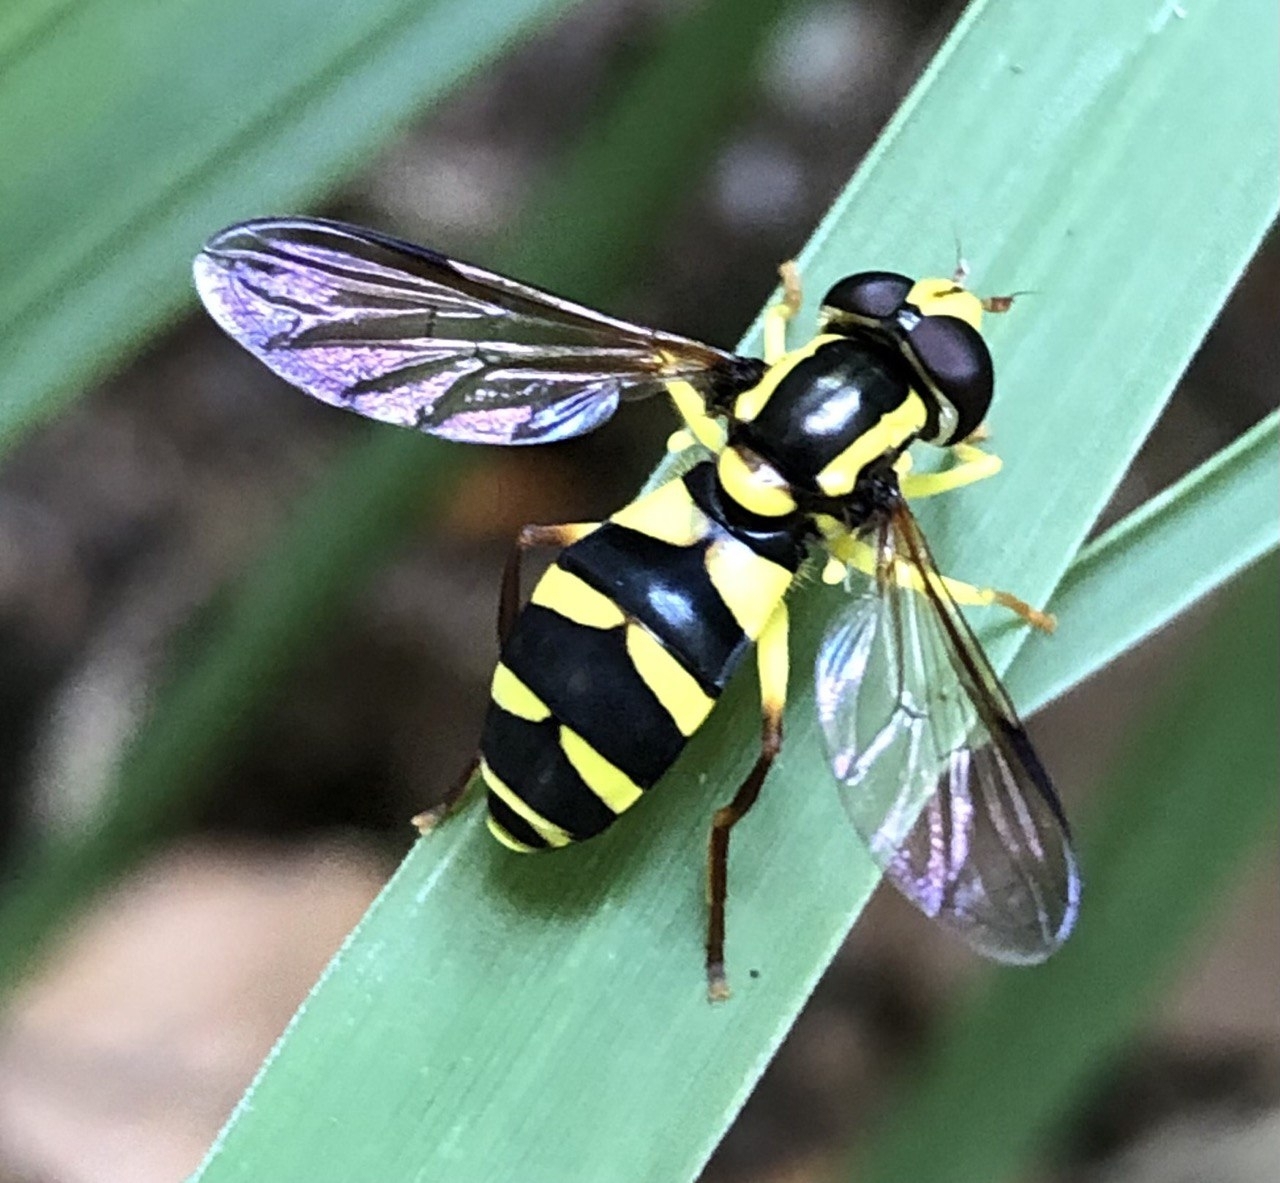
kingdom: Animalia
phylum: Arthropoda
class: Insecta
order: Diptera
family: Syrphidae
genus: Philhelius
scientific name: Philhelius dives
